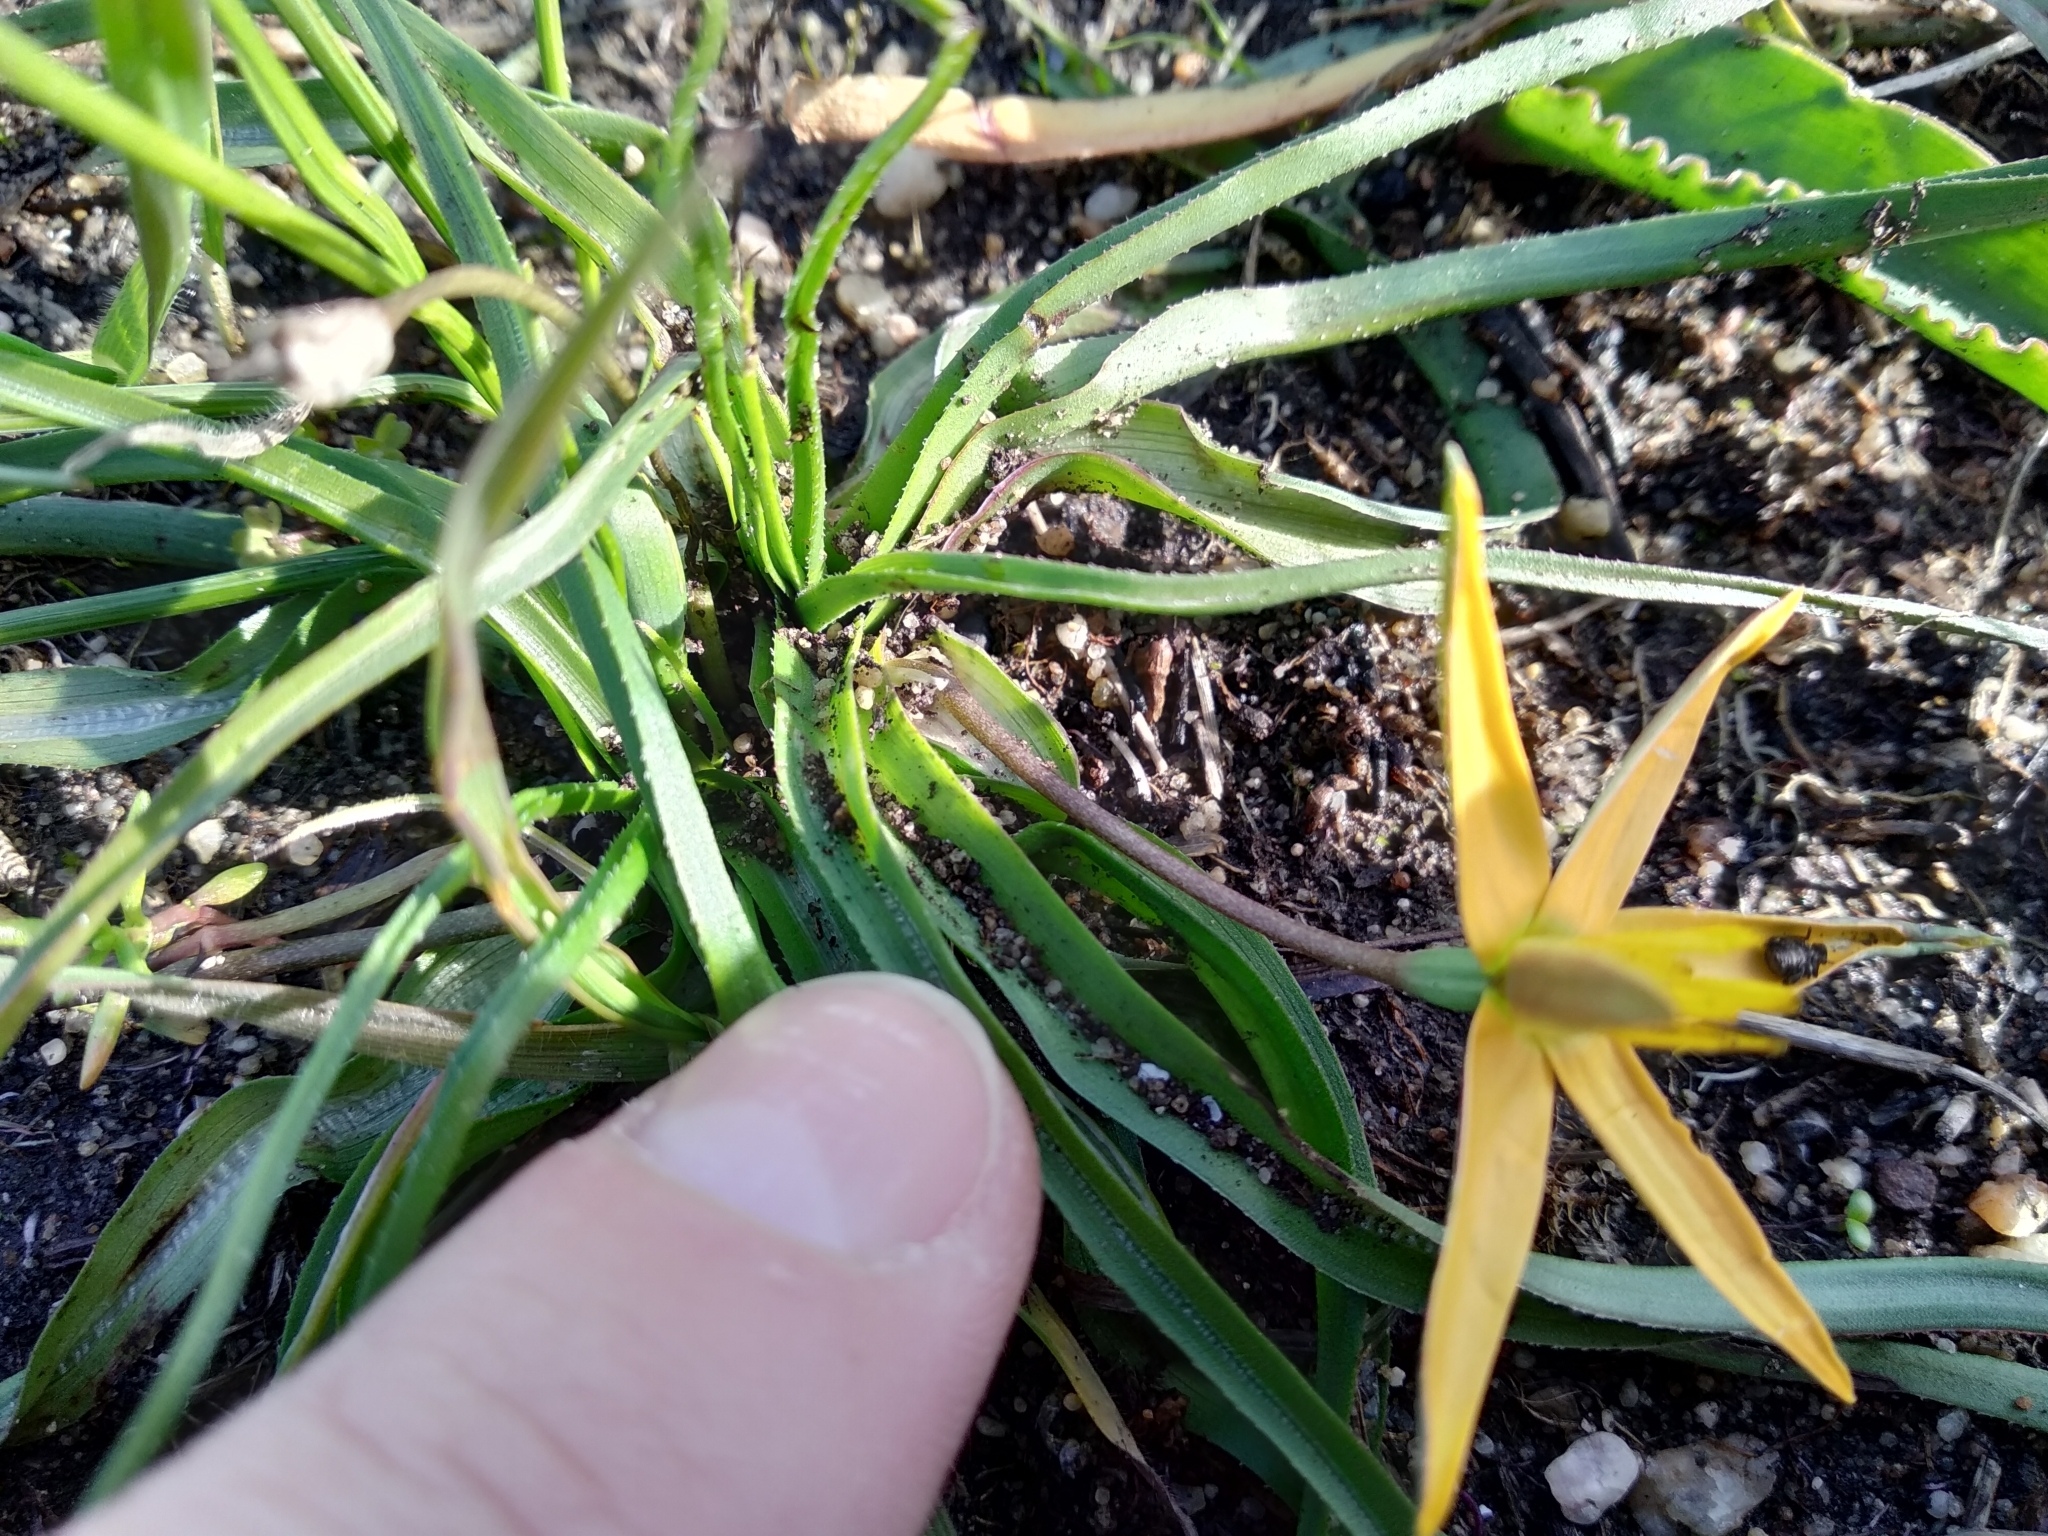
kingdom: Plantae
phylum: Tracheophyta
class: Liliopsida
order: Asparagales
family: Hypoxidaceae
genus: Pauridia
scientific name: Pauridia serrata
